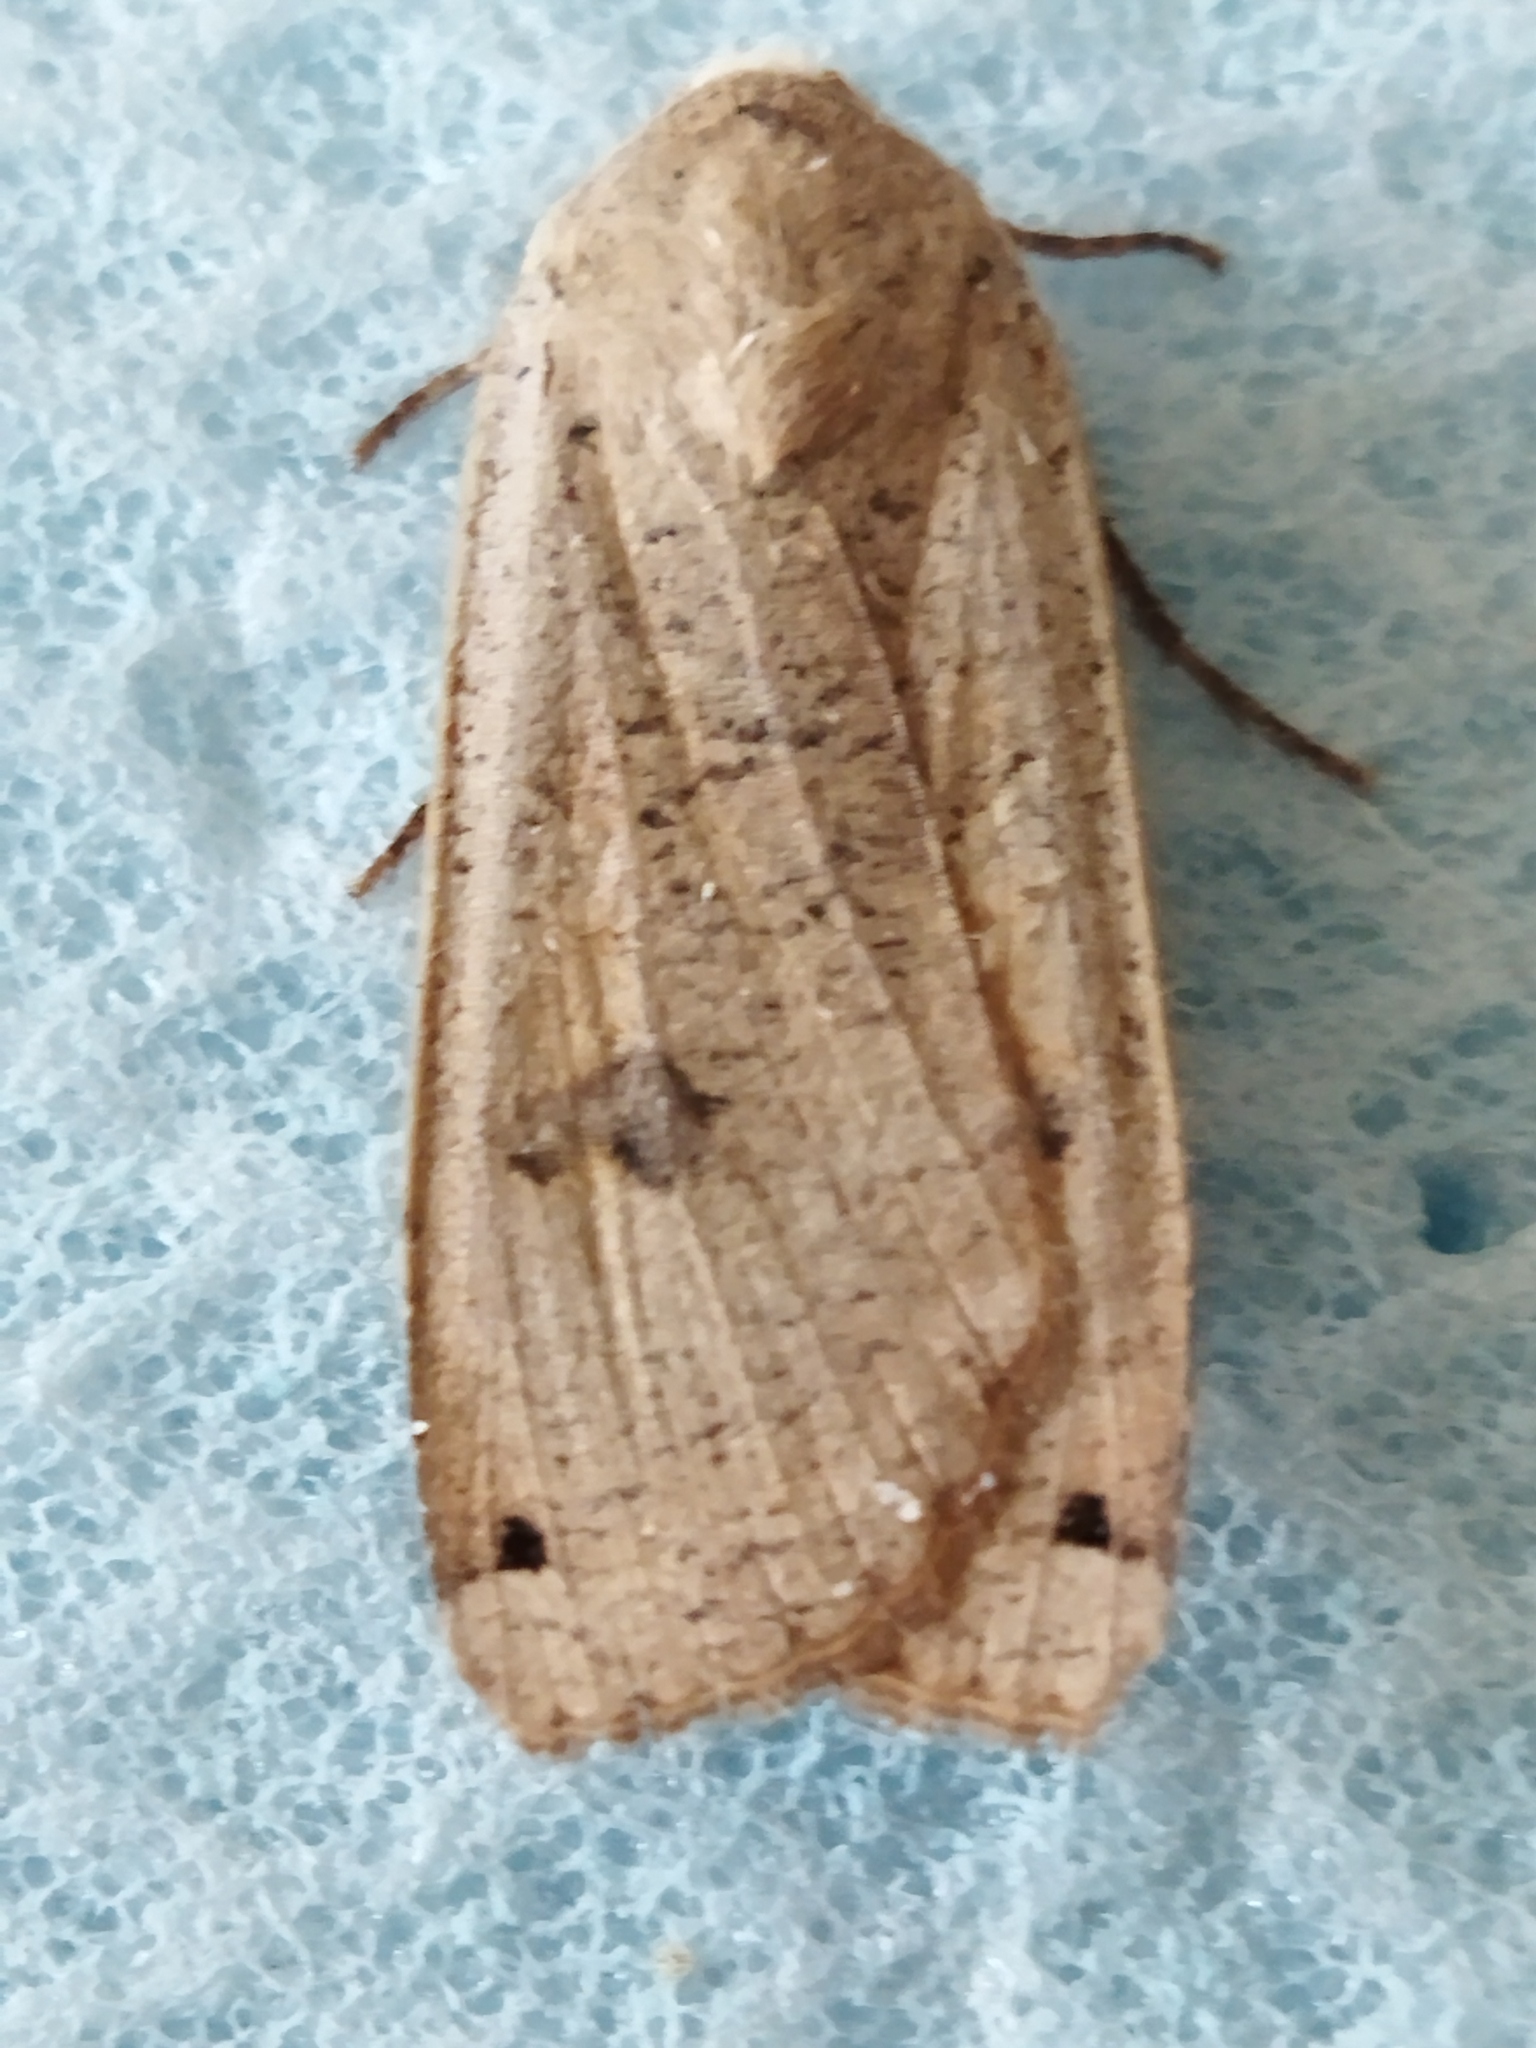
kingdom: Animalia
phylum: Arthropoda
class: Insecta
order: Lepidoptera
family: Noctuidae
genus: Noctua
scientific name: Noctua pronuba
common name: Large yellow underwing
